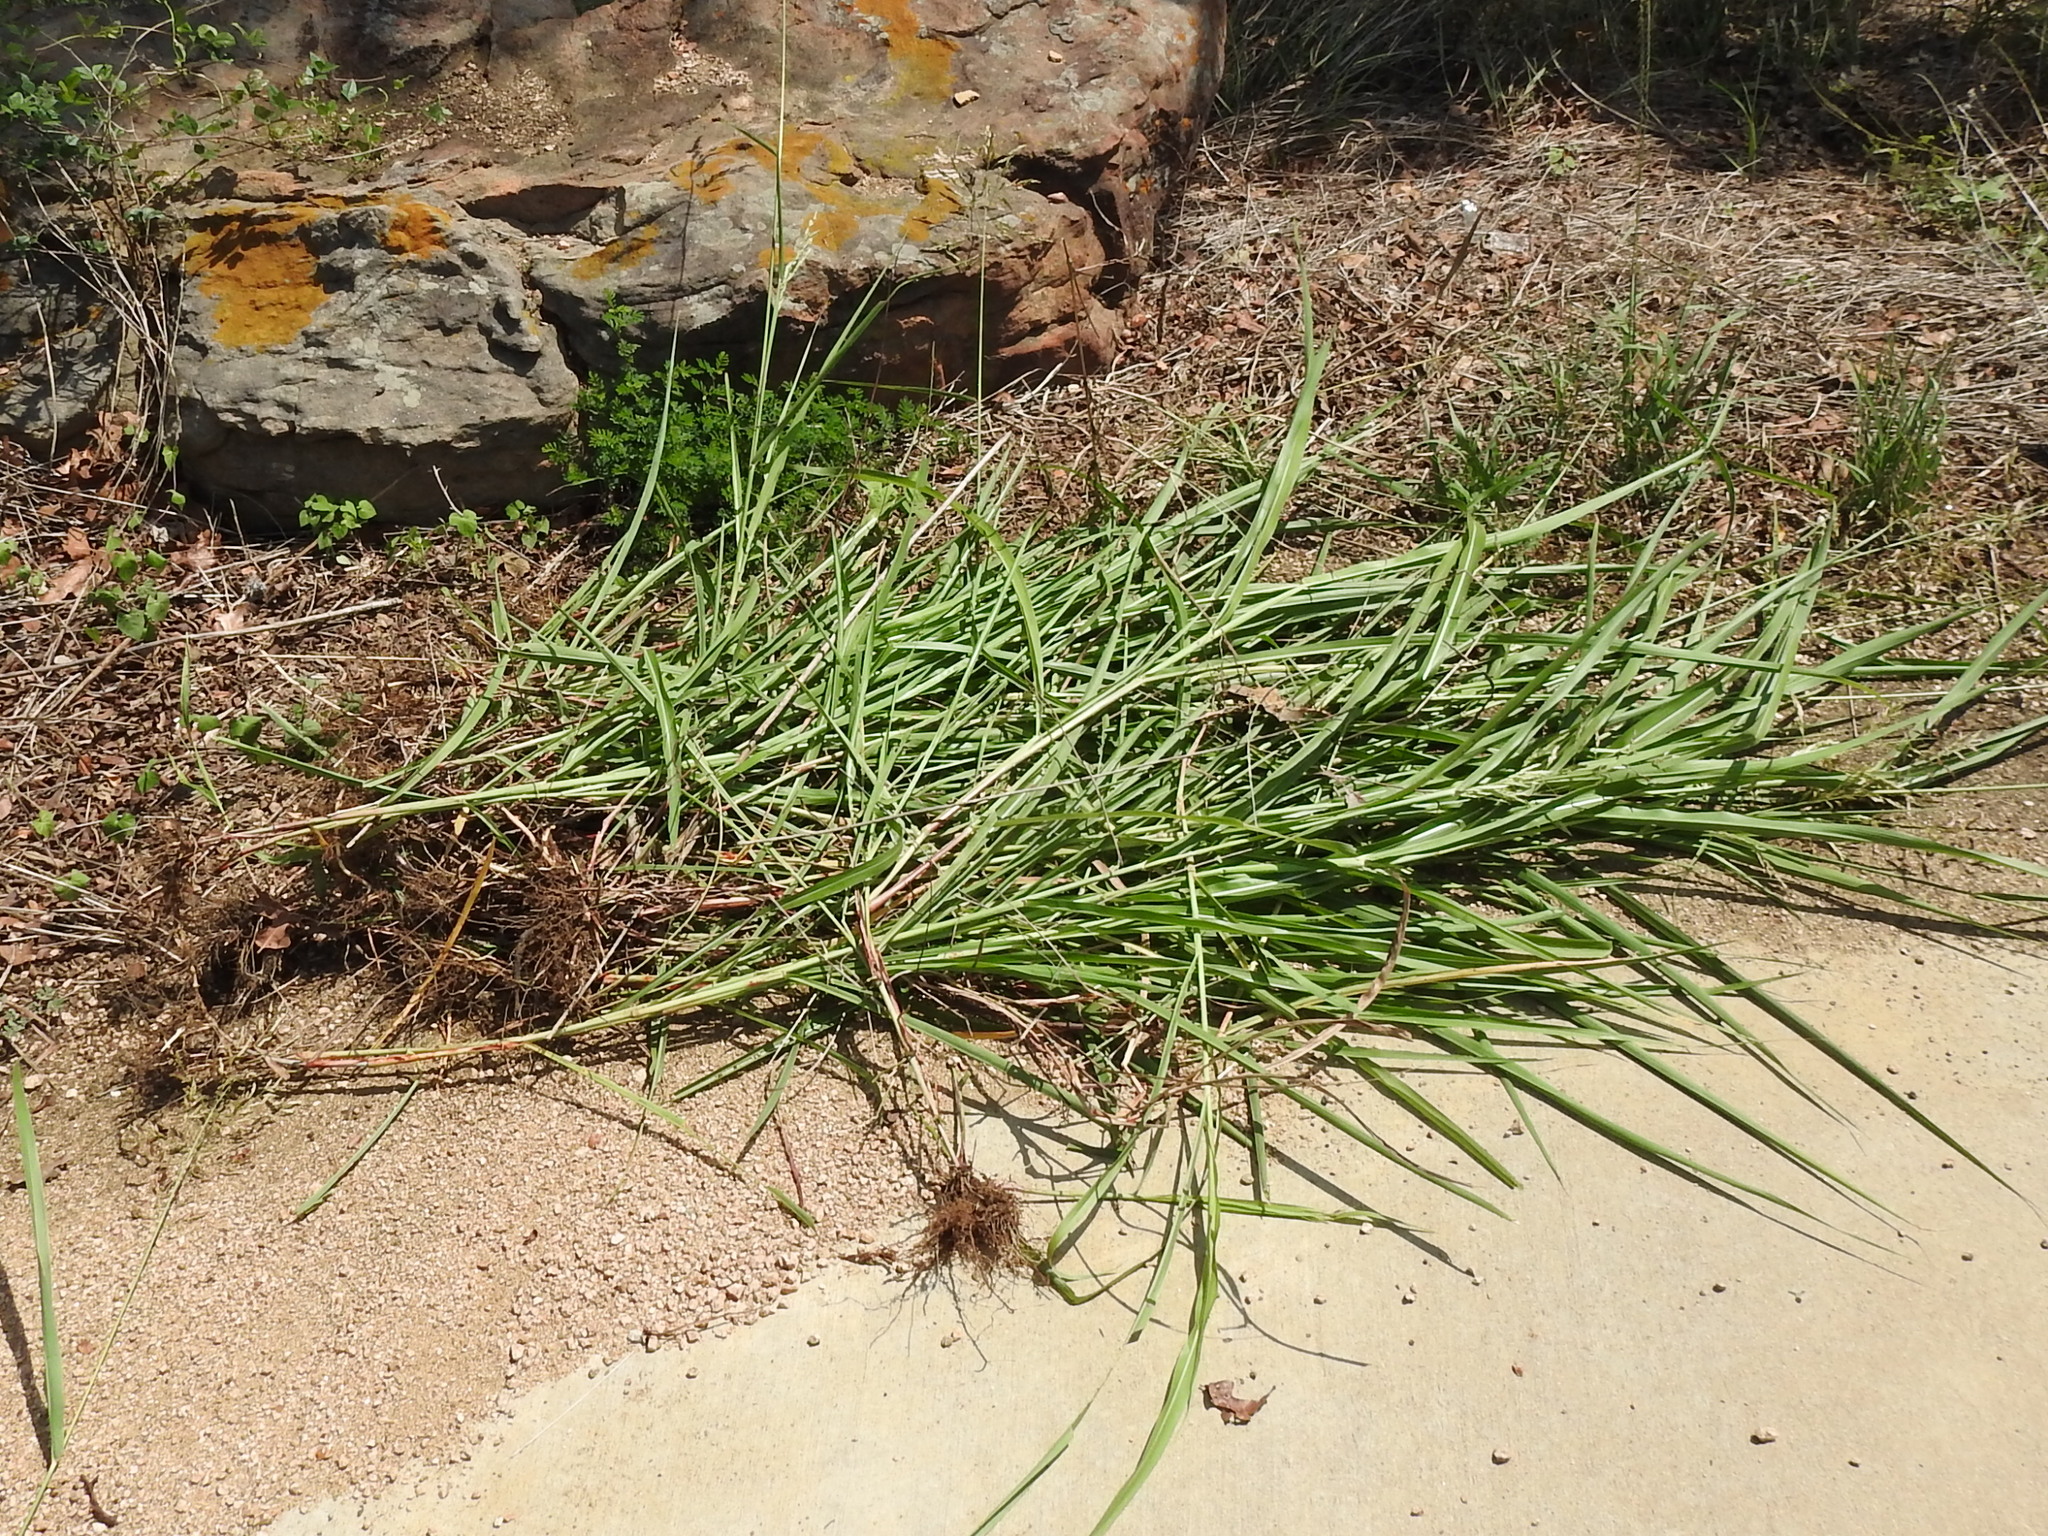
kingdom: Plantae
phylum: Tracheophyta
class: Liliopsida
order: Poales
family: Poaceae
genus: Sorghum
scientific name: Sorghum halepense
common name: Johnson-grass
